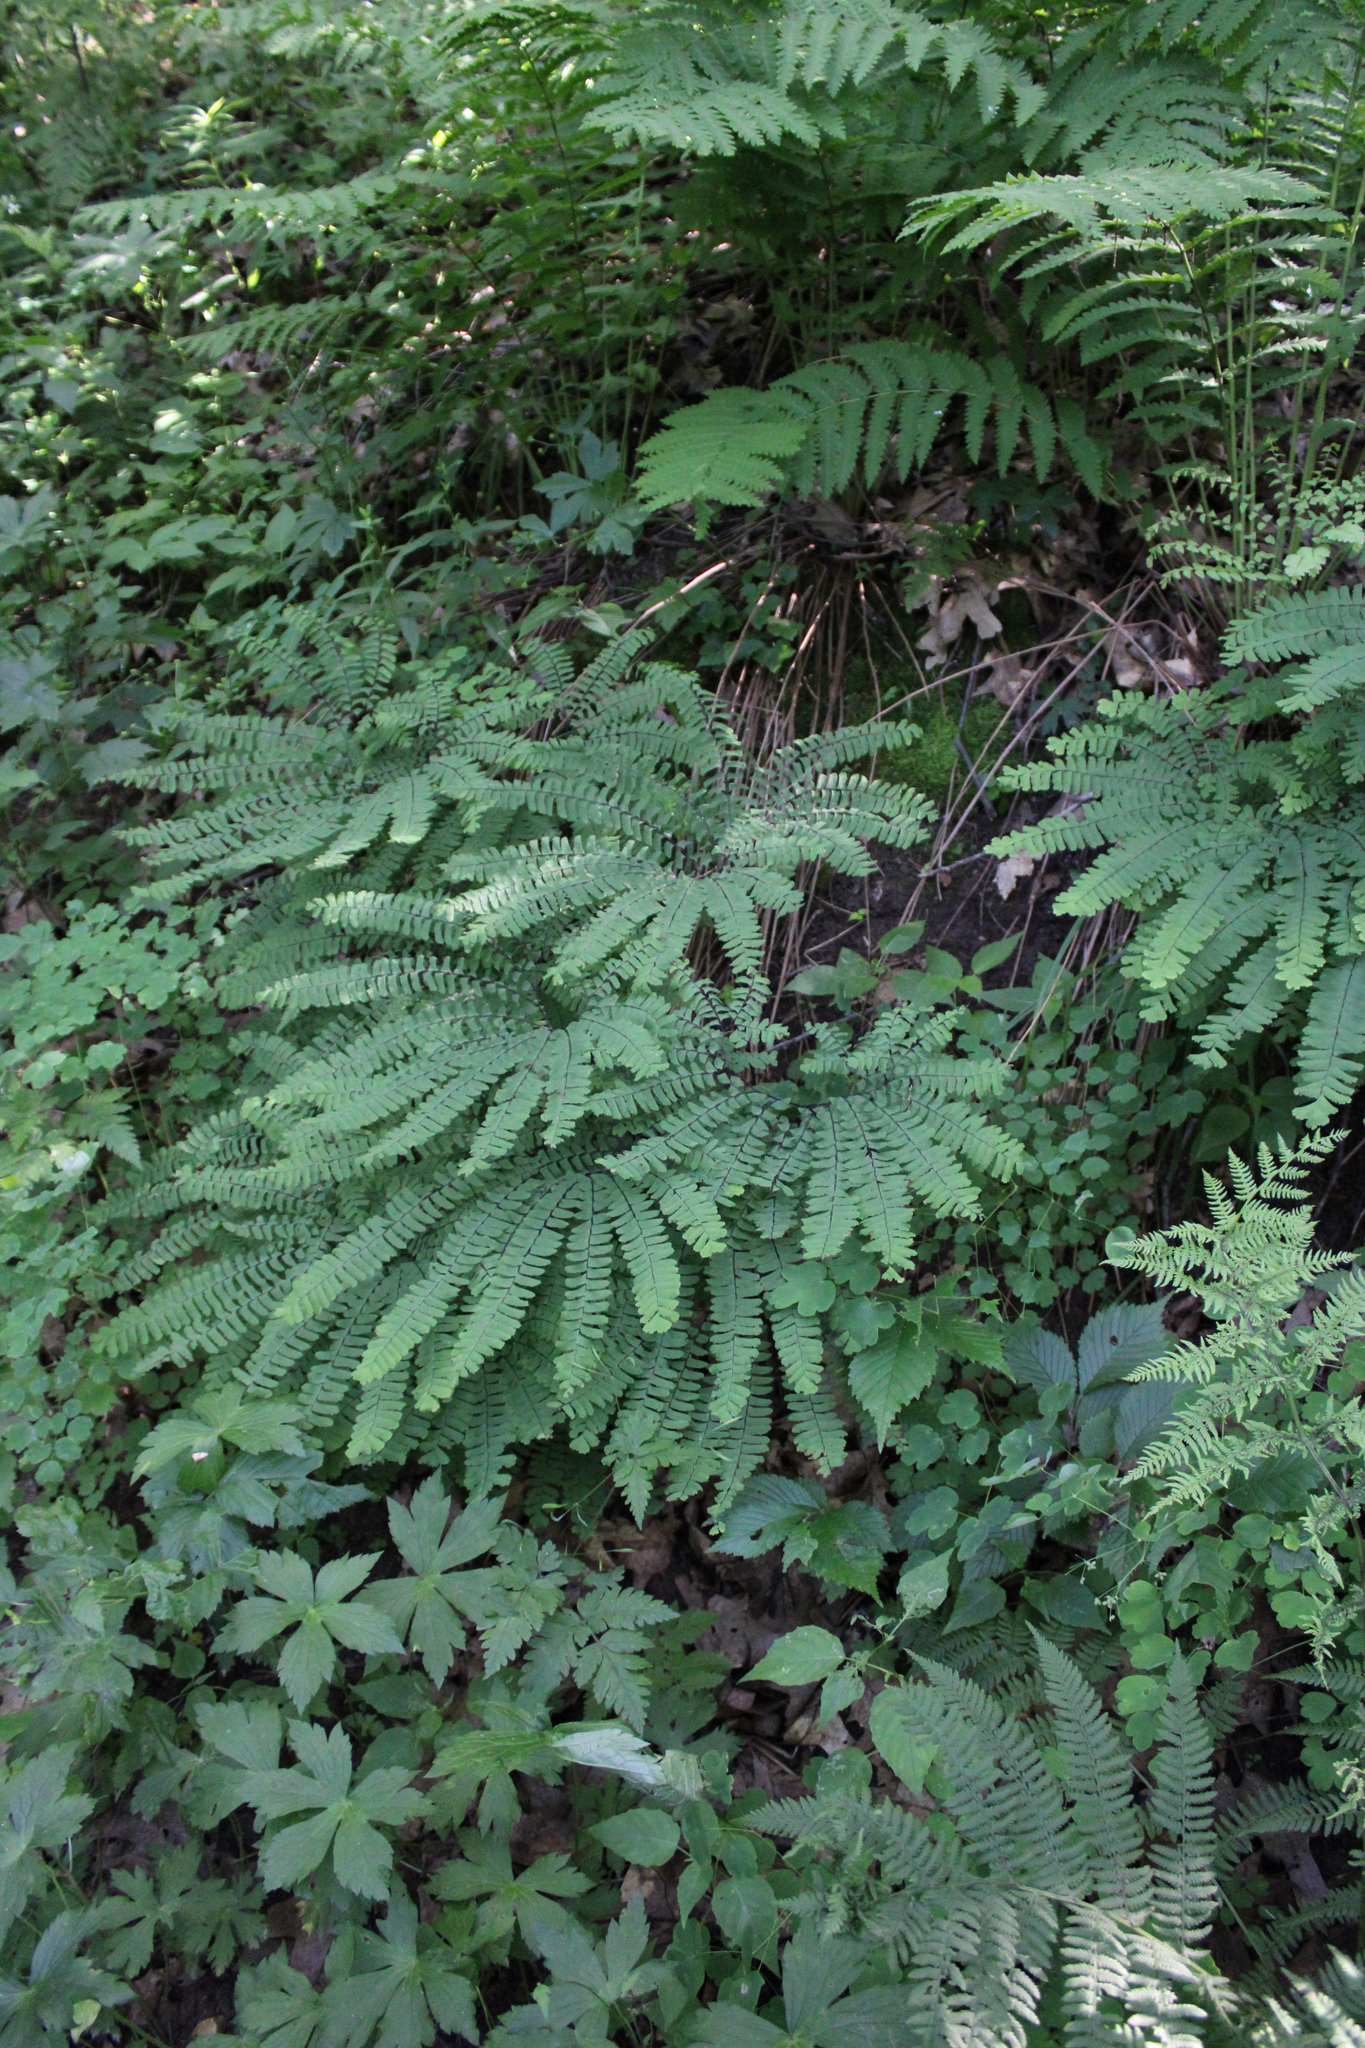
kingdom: Plantae
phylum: Tracheophyta
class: Polypodiopsida
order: Polypodiales
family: Pteridaceae
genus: Adiantum
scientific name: Adiantum pedatum
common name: Five-finger fern
